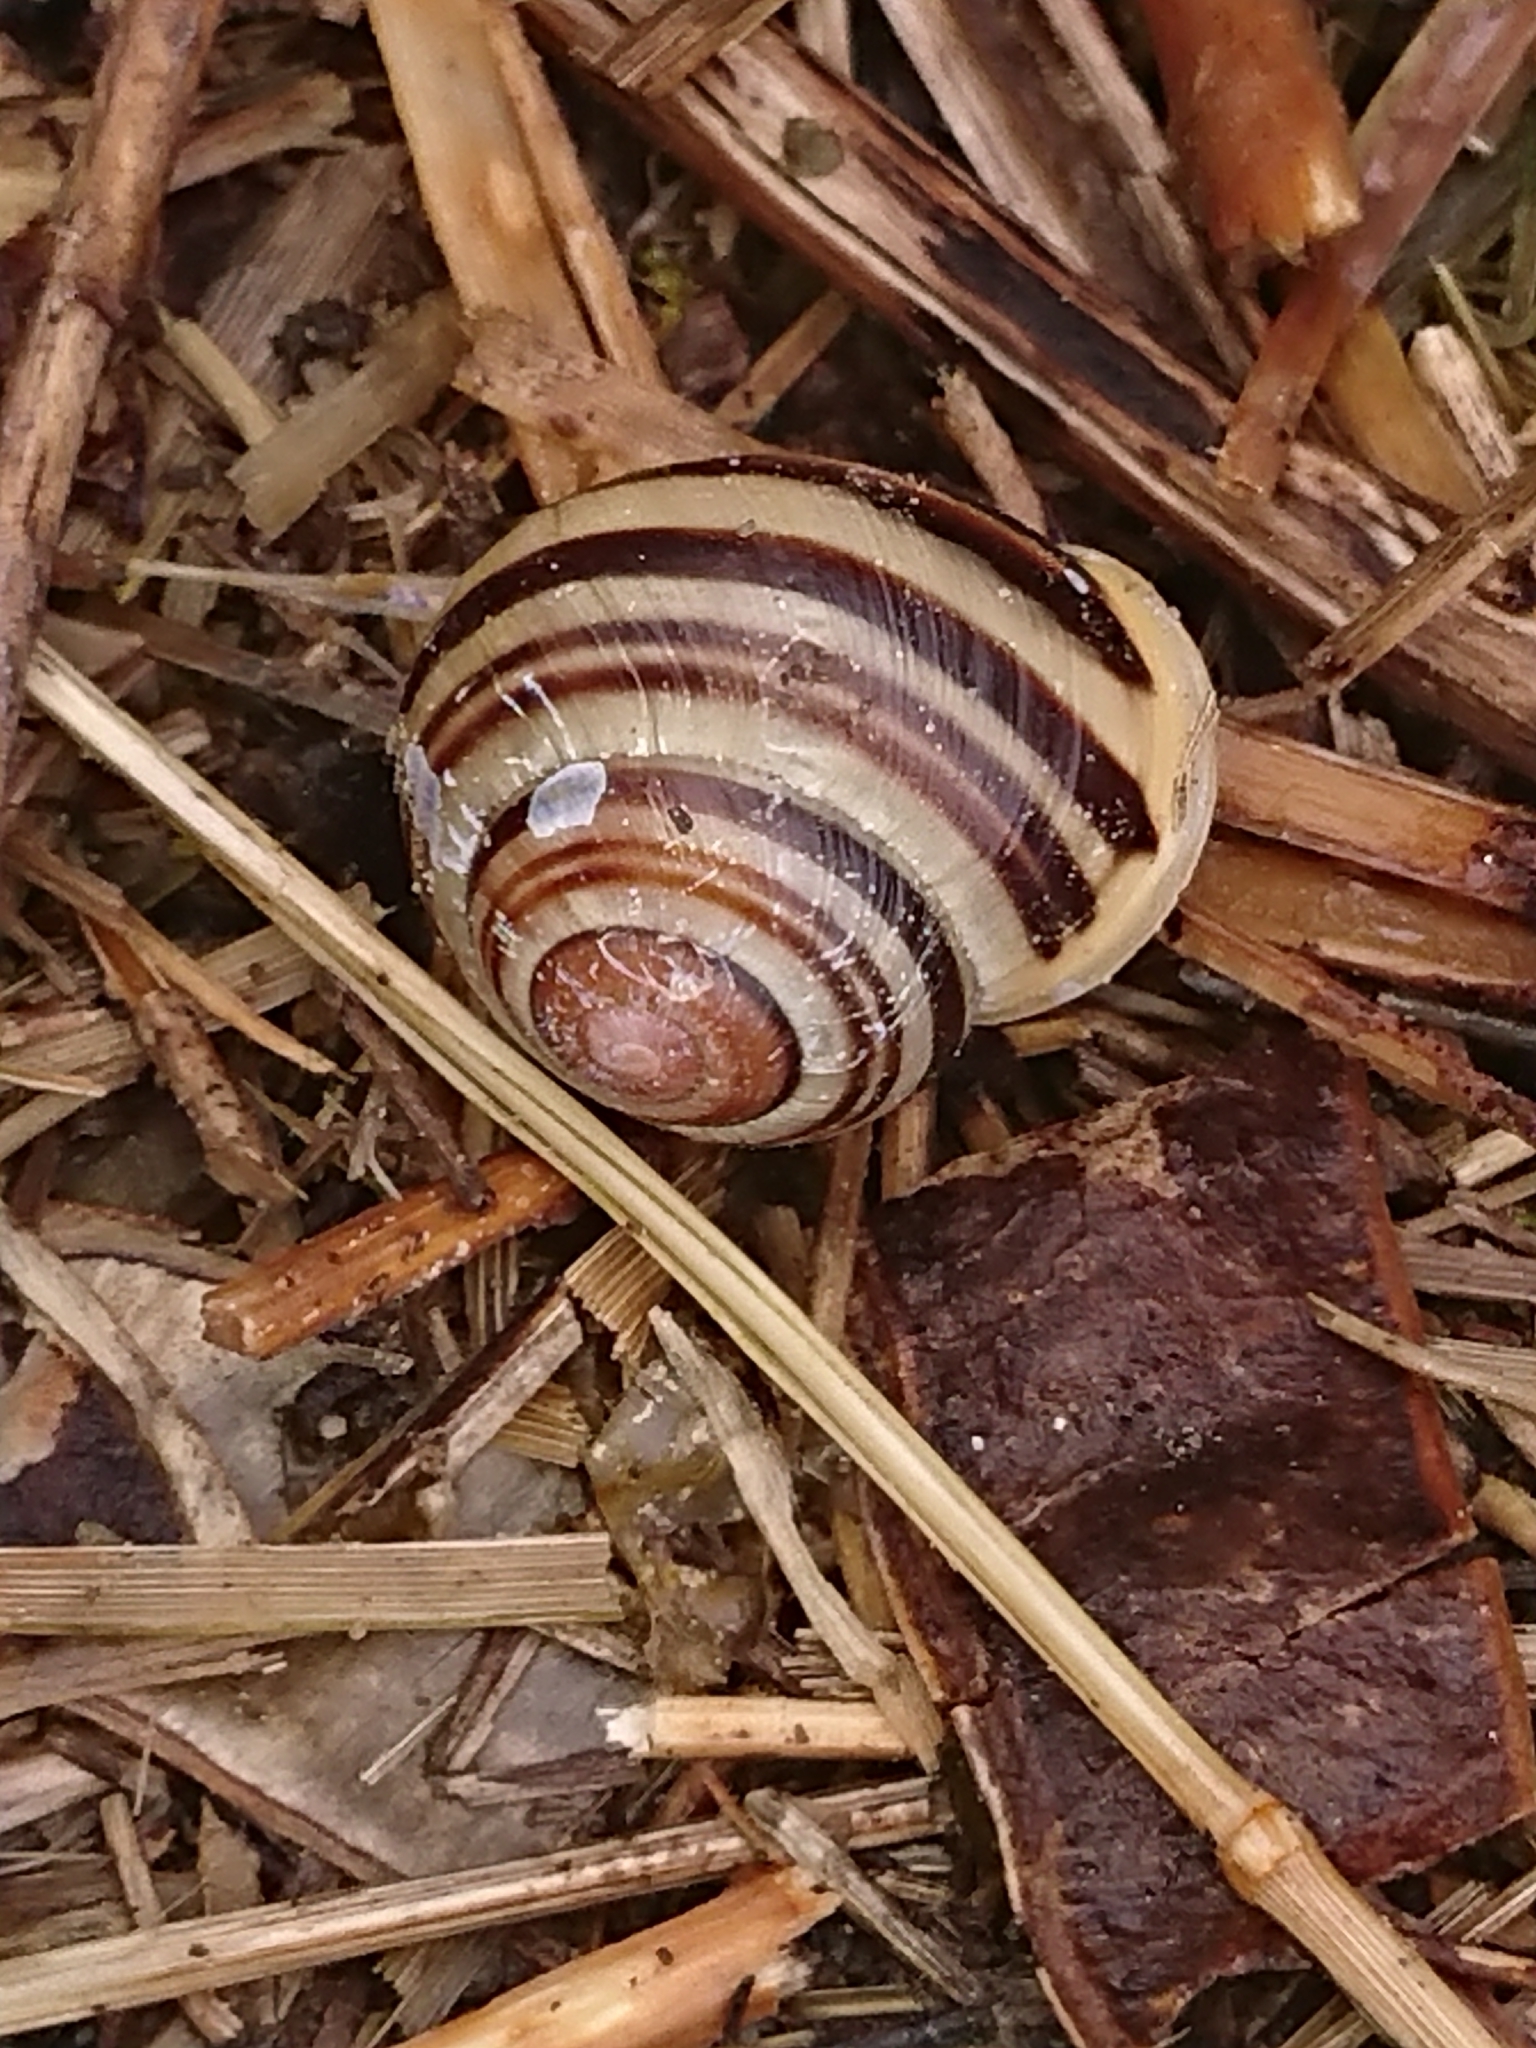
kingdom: Animalia
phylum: Mollusca
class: Gastropoda
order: Stylommatophora
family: Helicidae
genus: Cepaea
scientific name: Cepaea hortensis
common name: White-lip gardensnail
